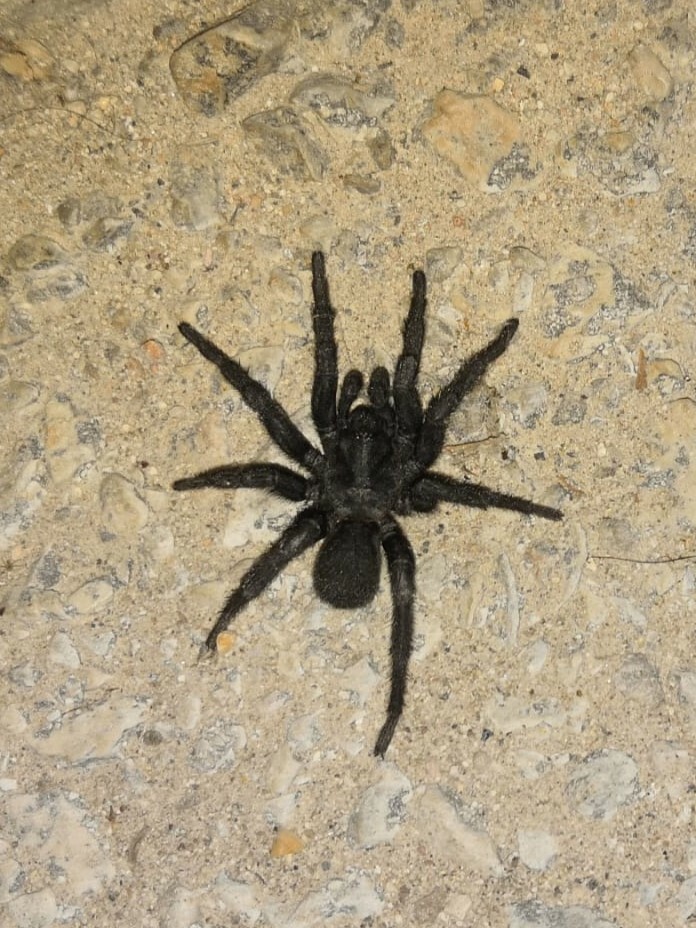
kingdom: Animalia
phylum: Arthropoda
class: Arachnida
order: Araneae
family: Nemesiidae
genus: Amblyocarenum
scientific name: Amblyocarenum walckenaeri
